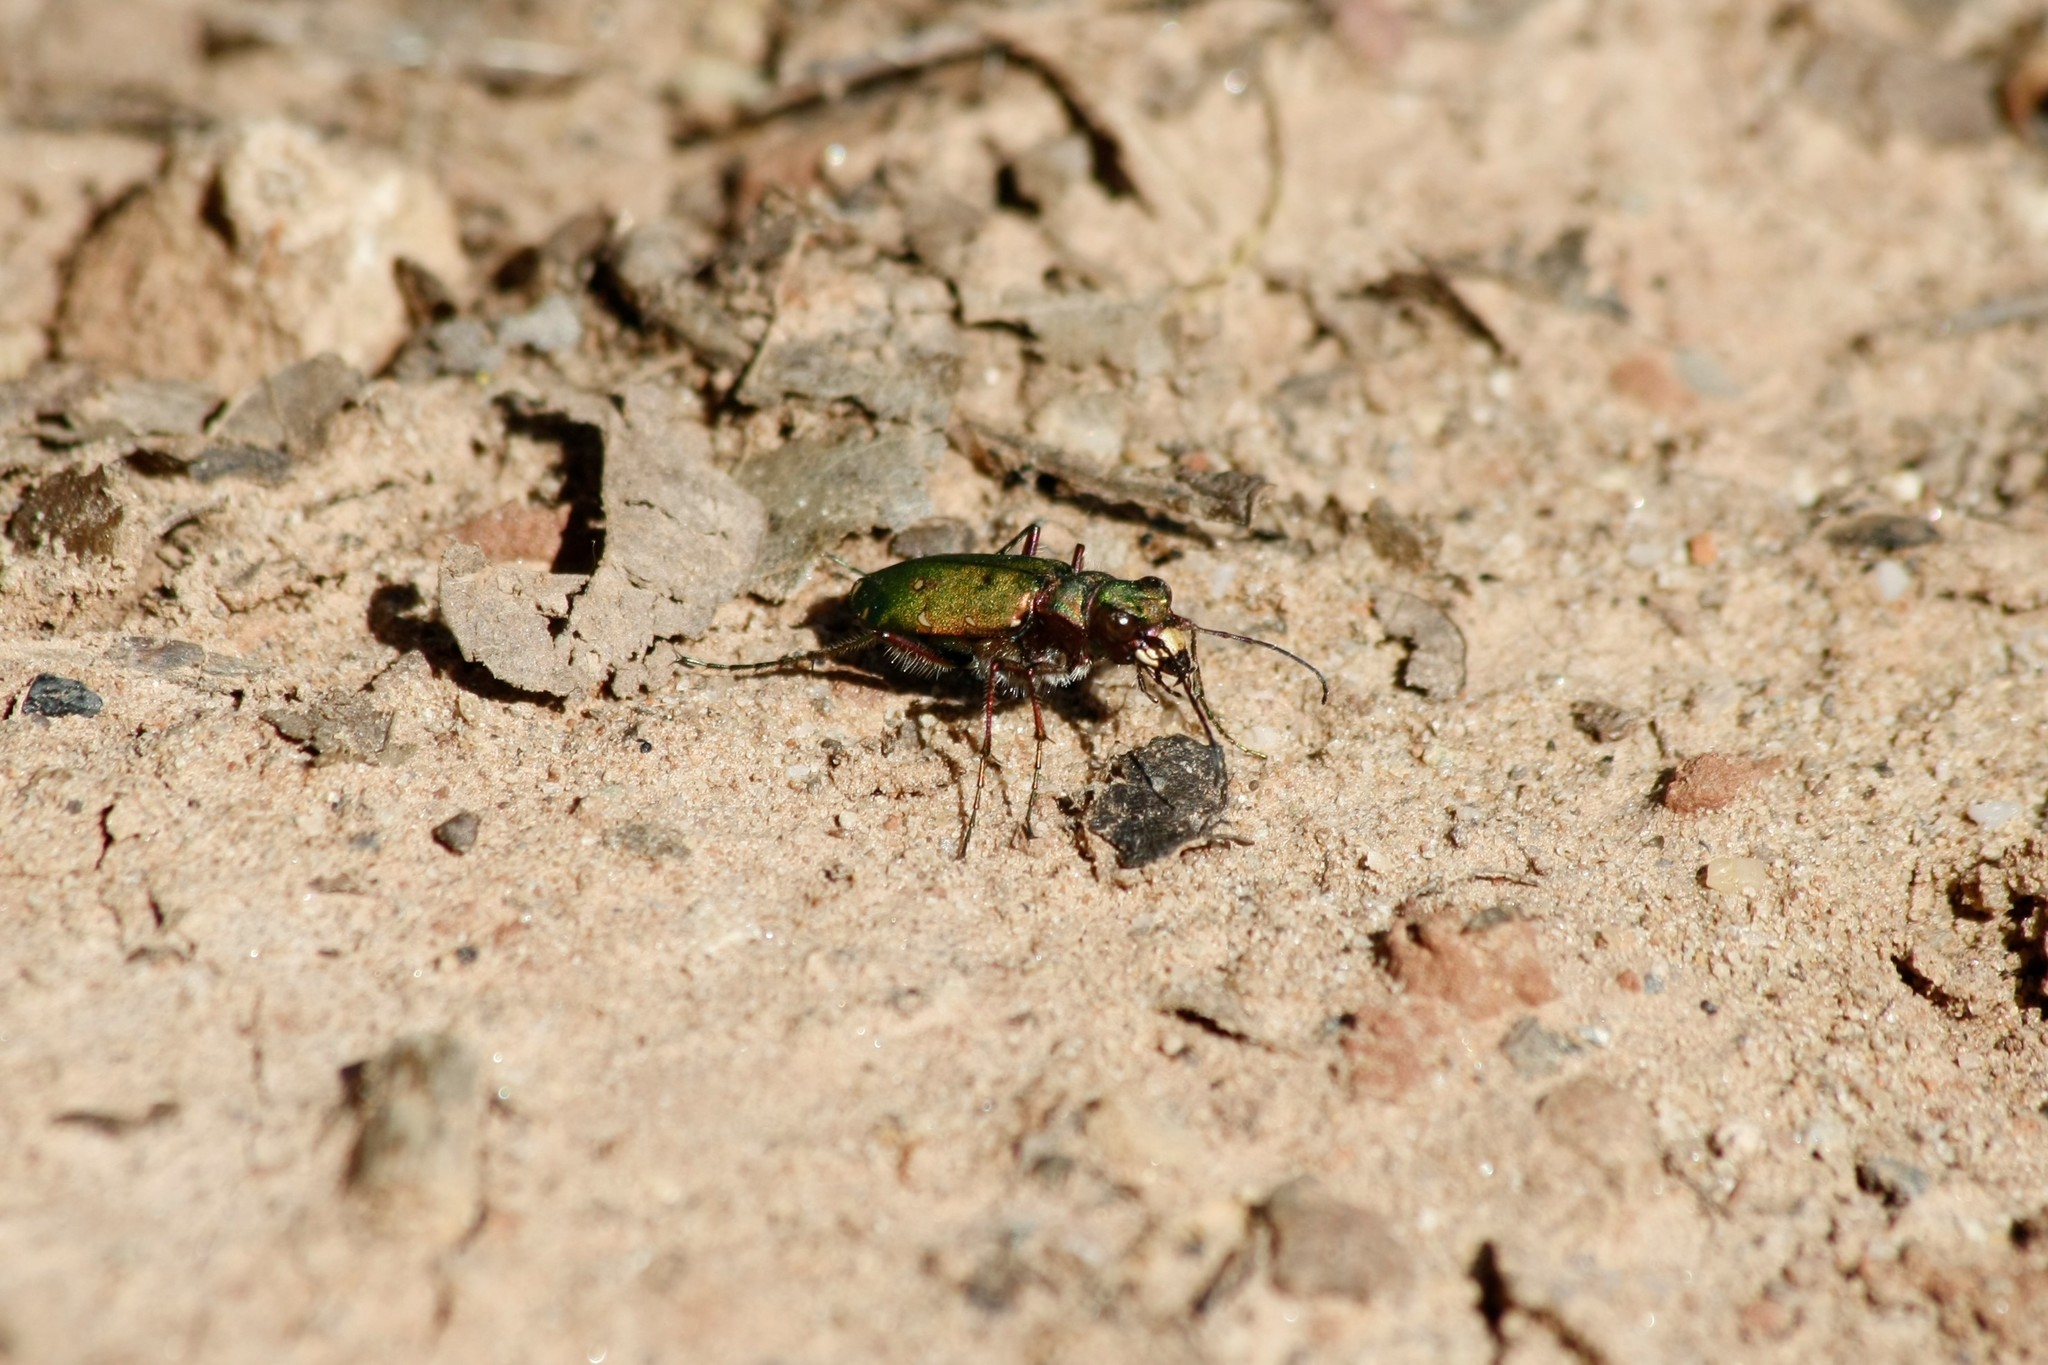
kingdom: Animalia
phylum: Arthropoda
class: Insecta
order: Coleoptera
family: Carabidae
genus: Cicindela
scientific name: Cicindela campestris
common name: Common tiger beetle
